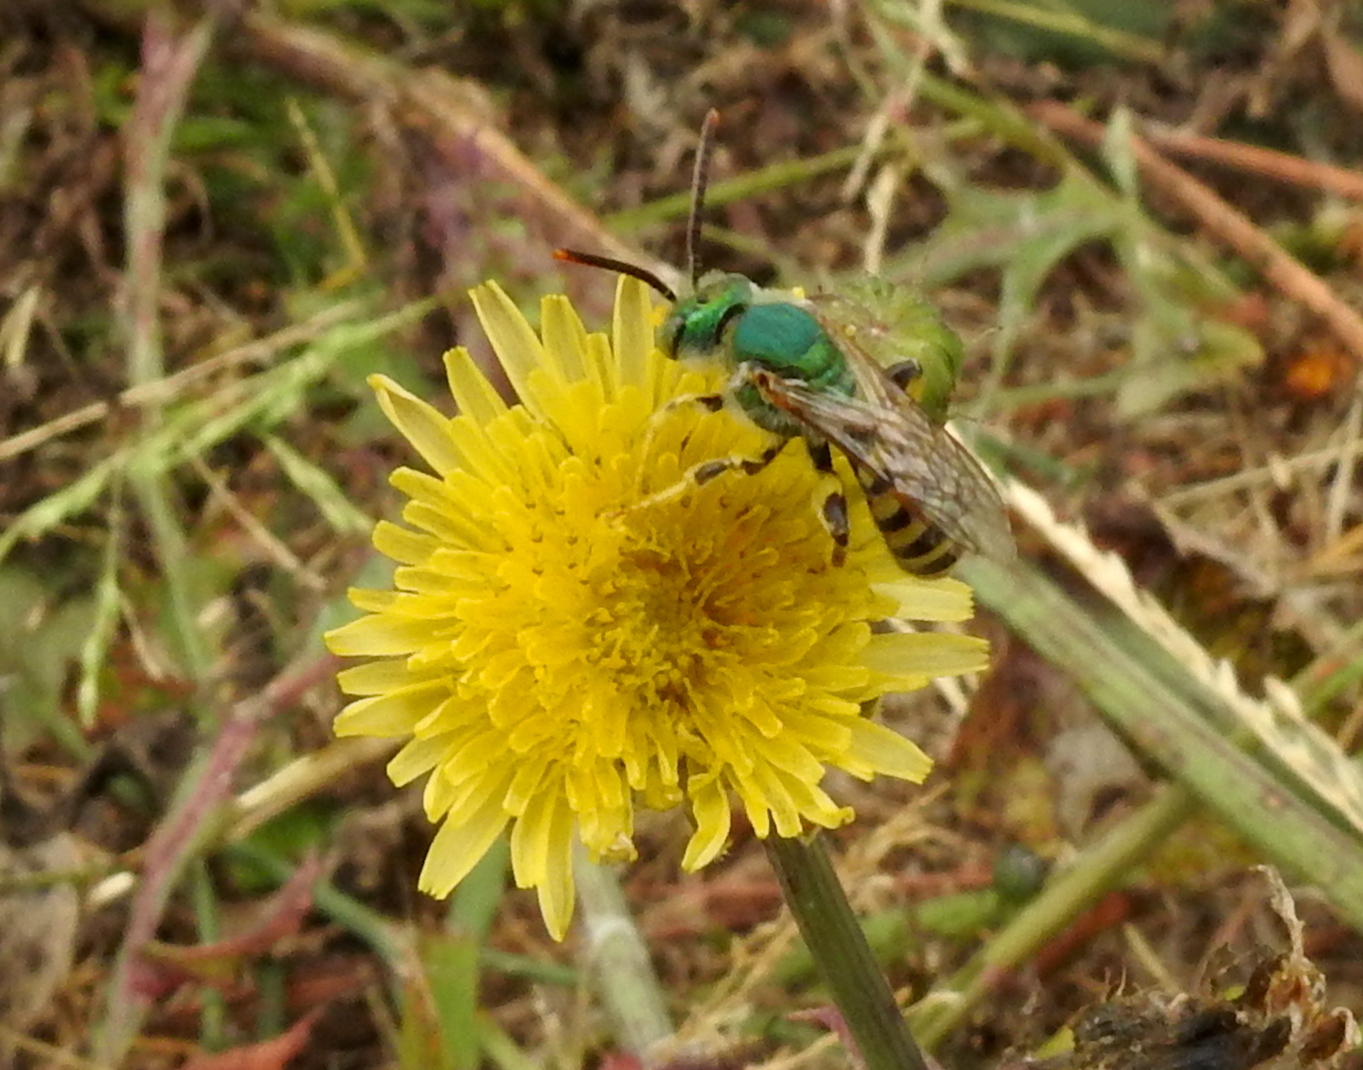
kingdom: Animalia
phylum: Arthropoda
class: Insecta
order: Hymenoptera
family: Halictidae
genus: Agapostemon
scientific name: Agapostemon texanus
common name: Texas striped sweat bee
